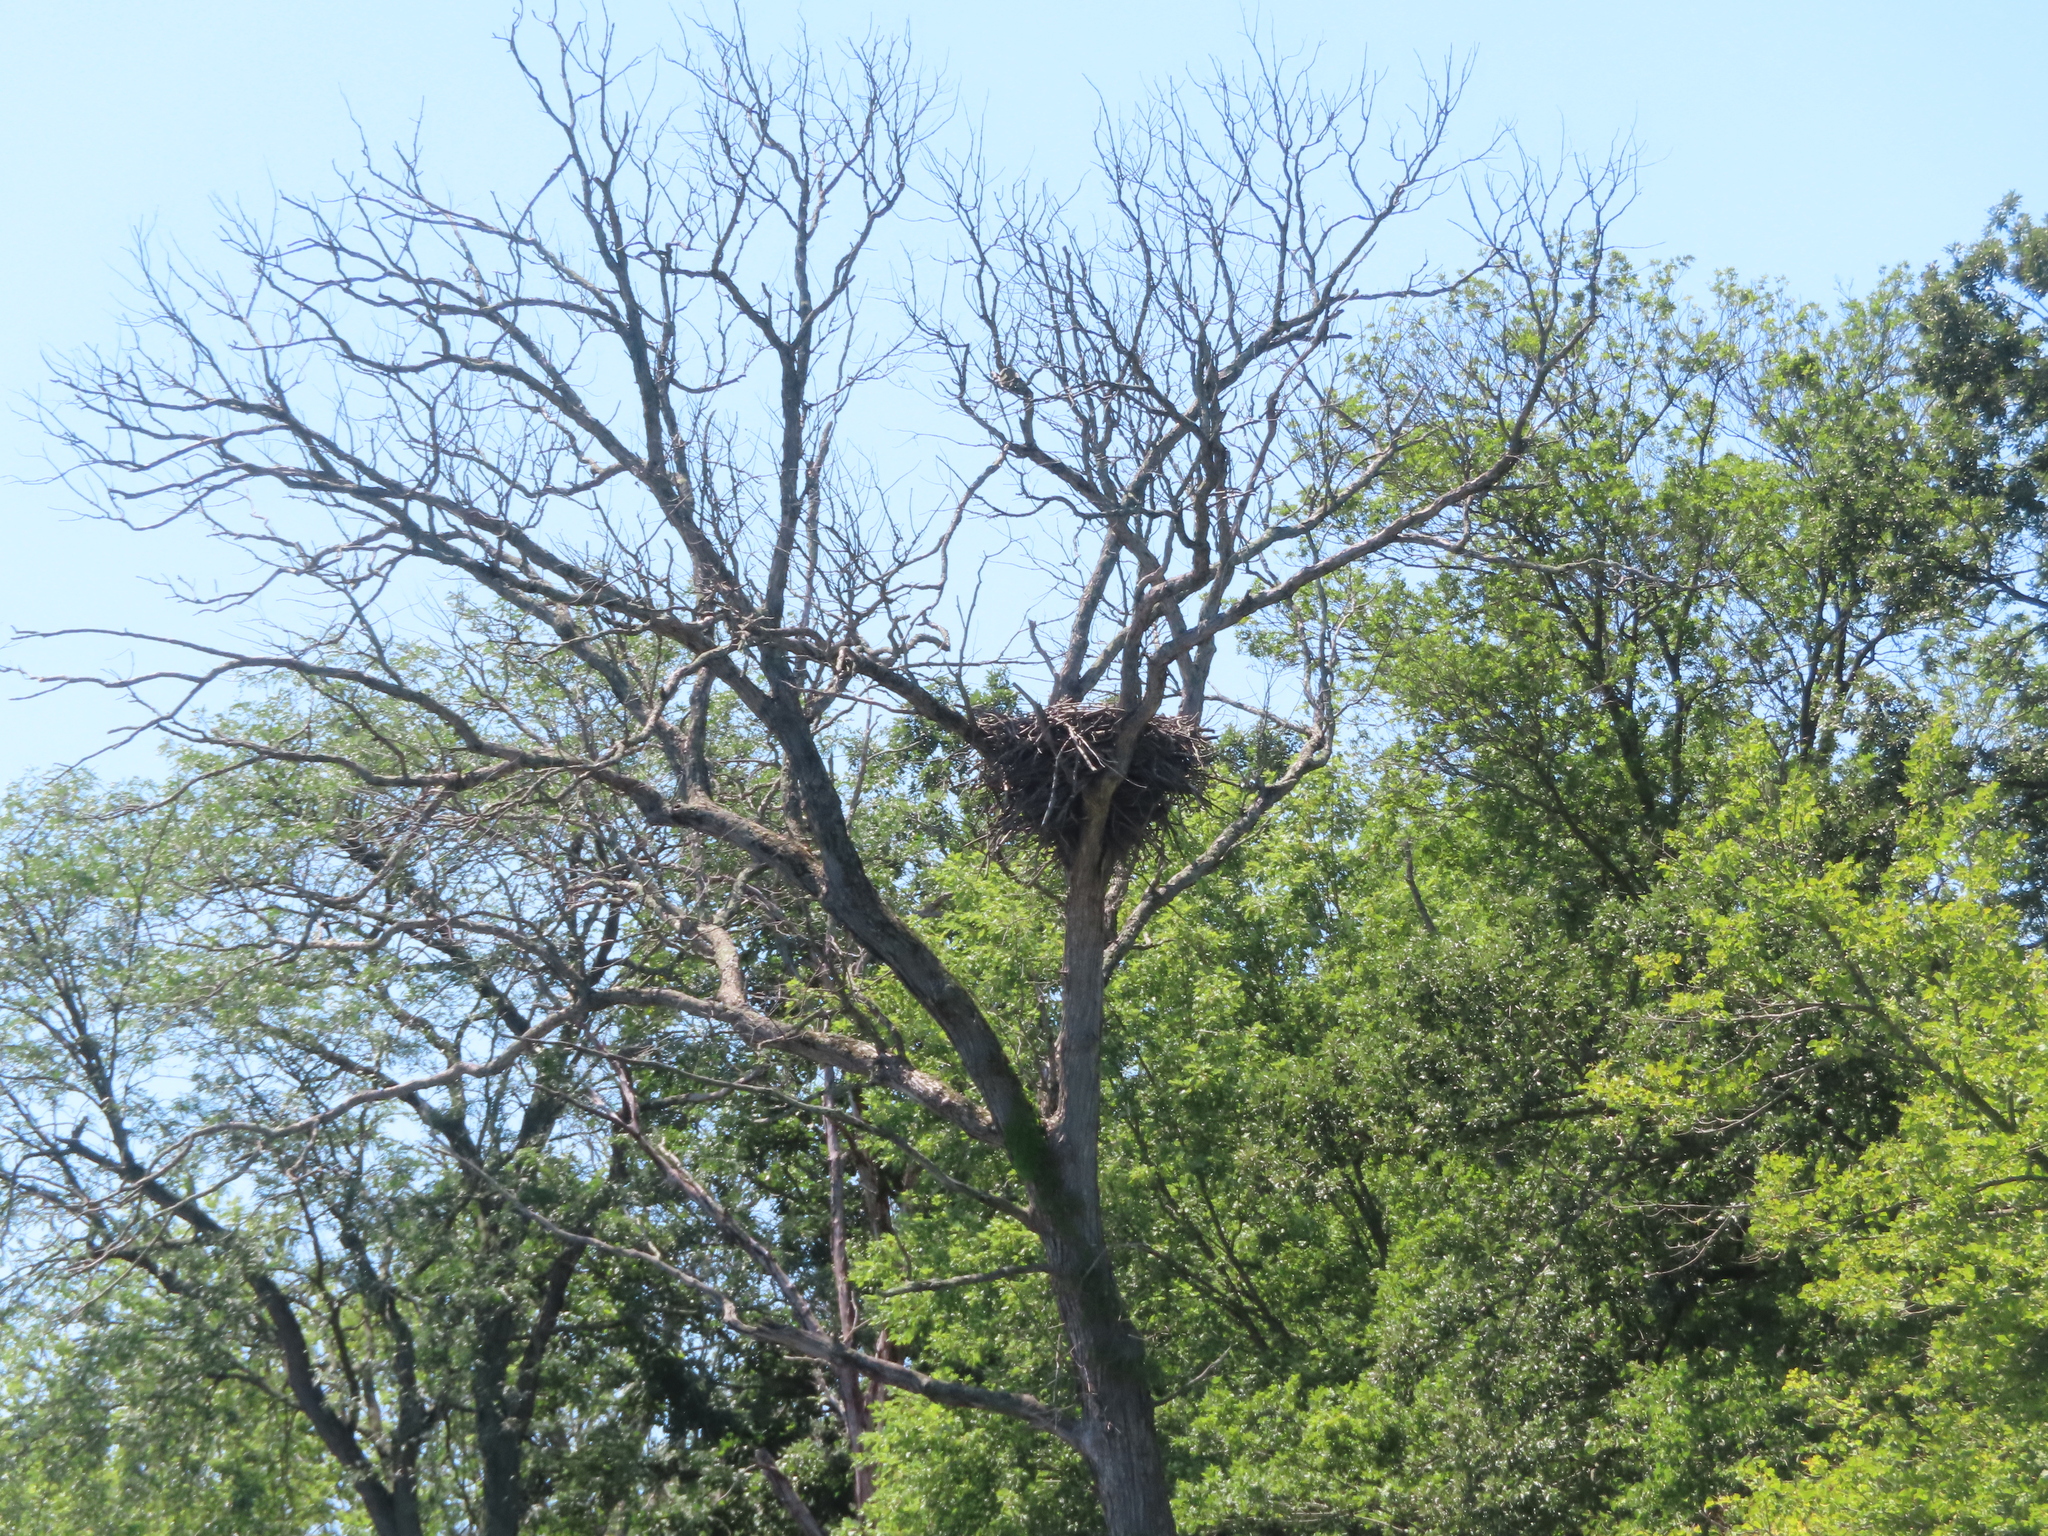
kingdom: Animalia
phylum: Chordata
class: Aves
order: Accipitriformes
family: Accipitridae
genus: Haliaeetus
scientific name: Haliaeetus leucocephalus
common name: Bald eagle
